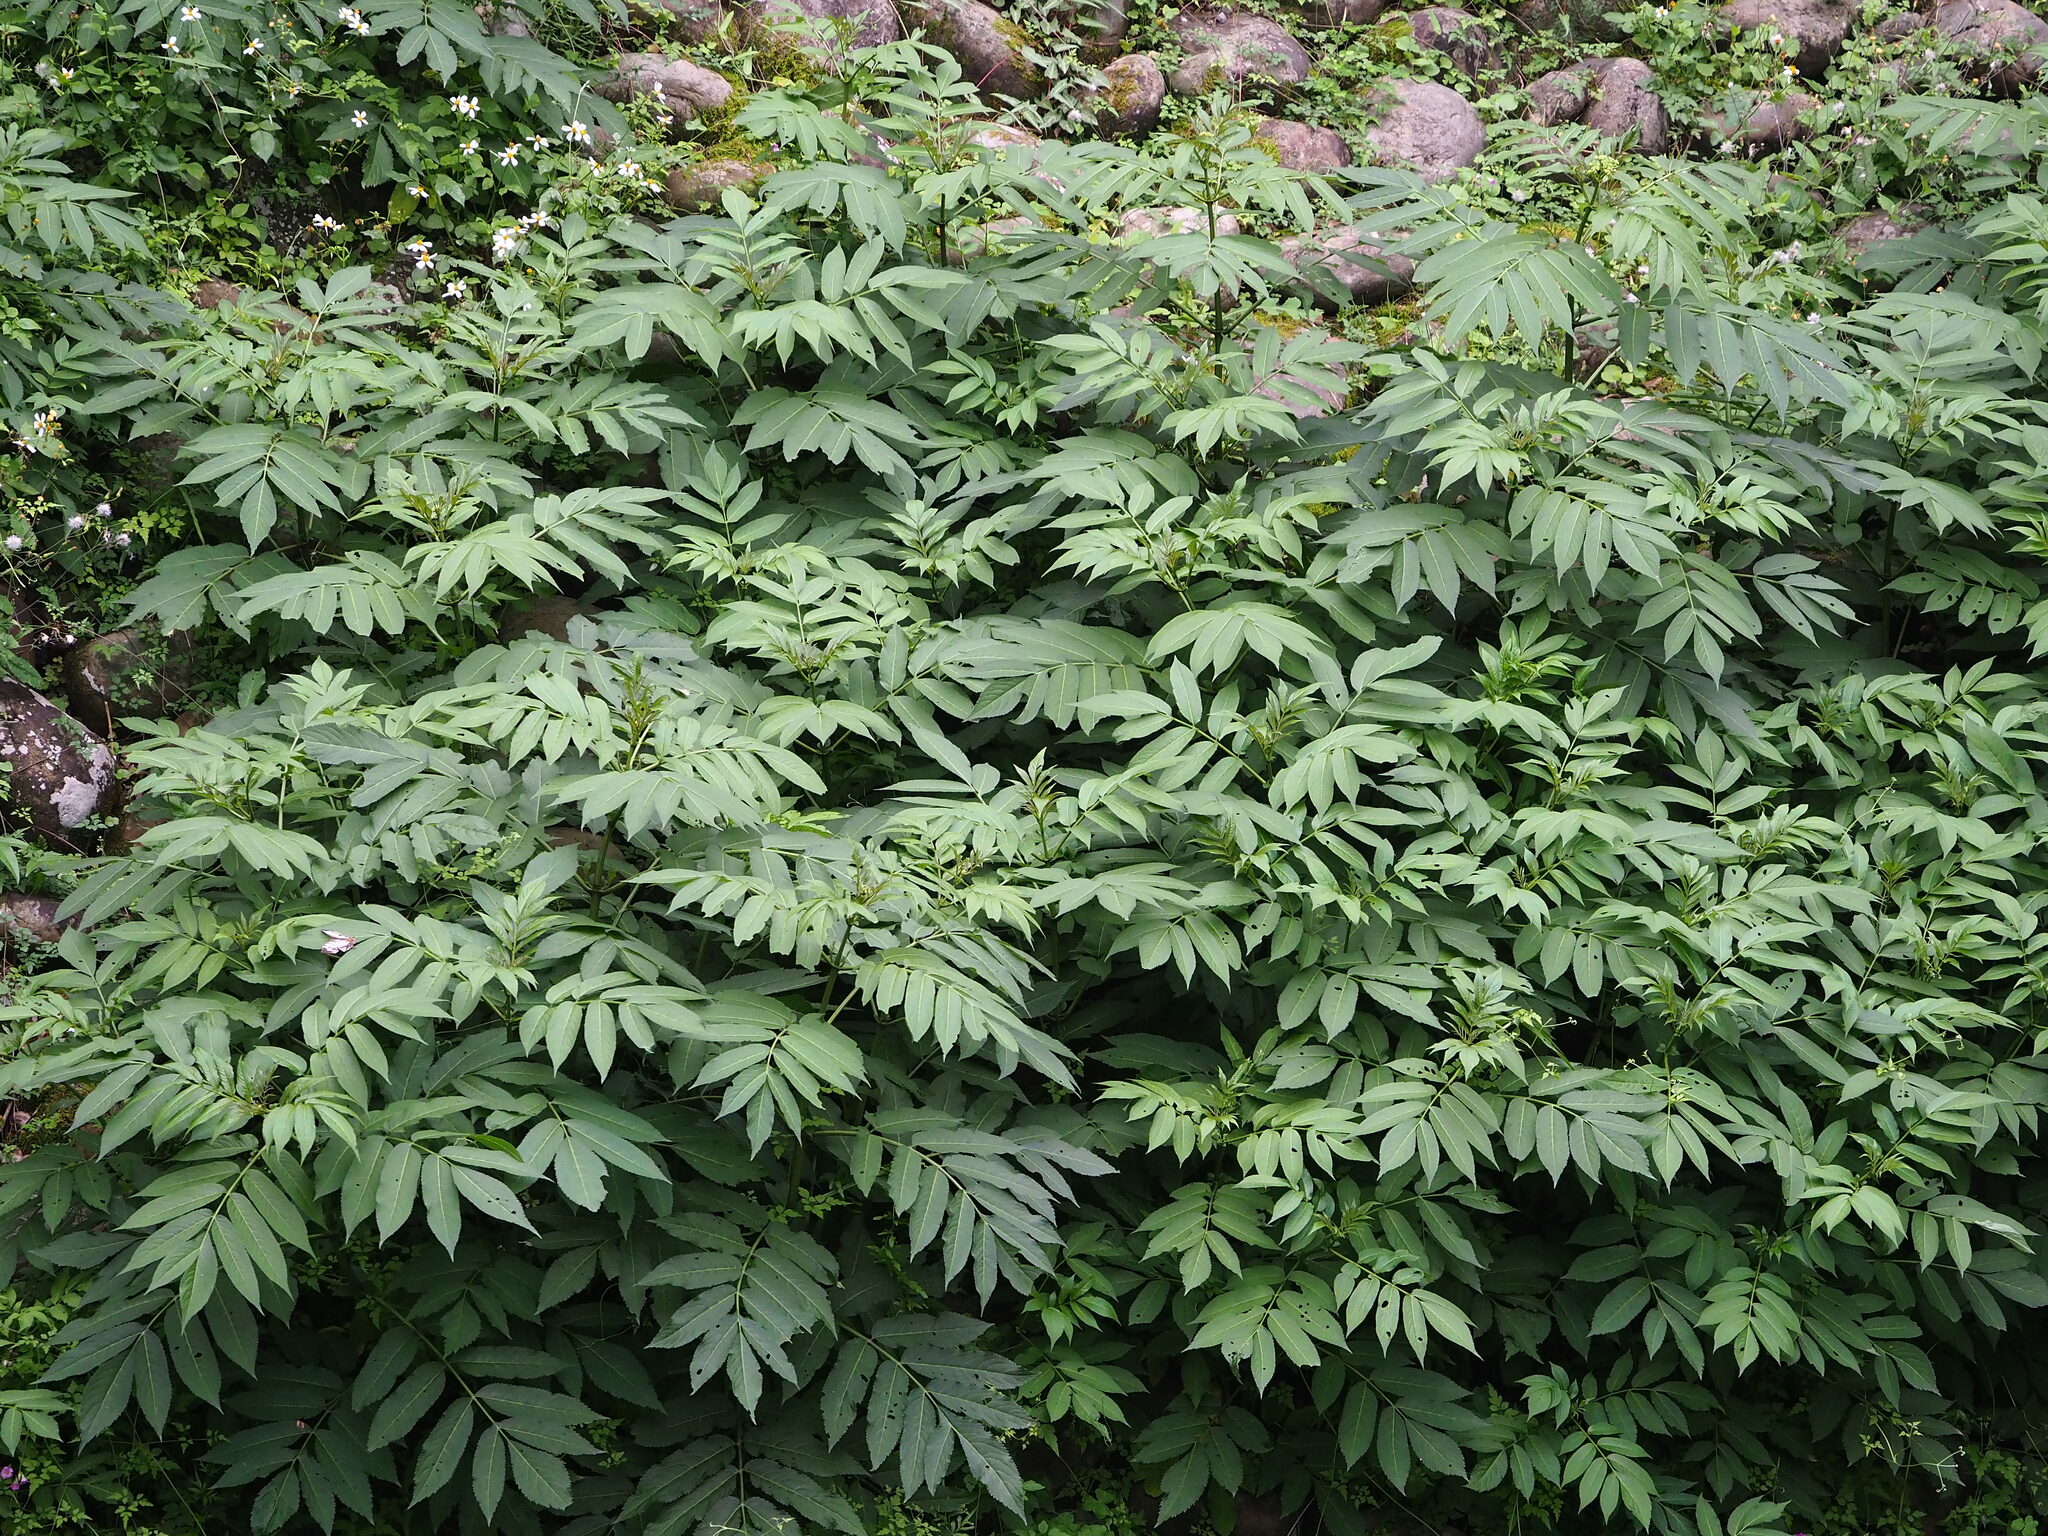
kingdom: Plantae
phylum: Tracheophyta
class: Magnoliopsida
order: Dipsacales
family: Viburnaceae
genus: Sambucus
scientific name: Sambucus javanica
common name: Chinese elder
